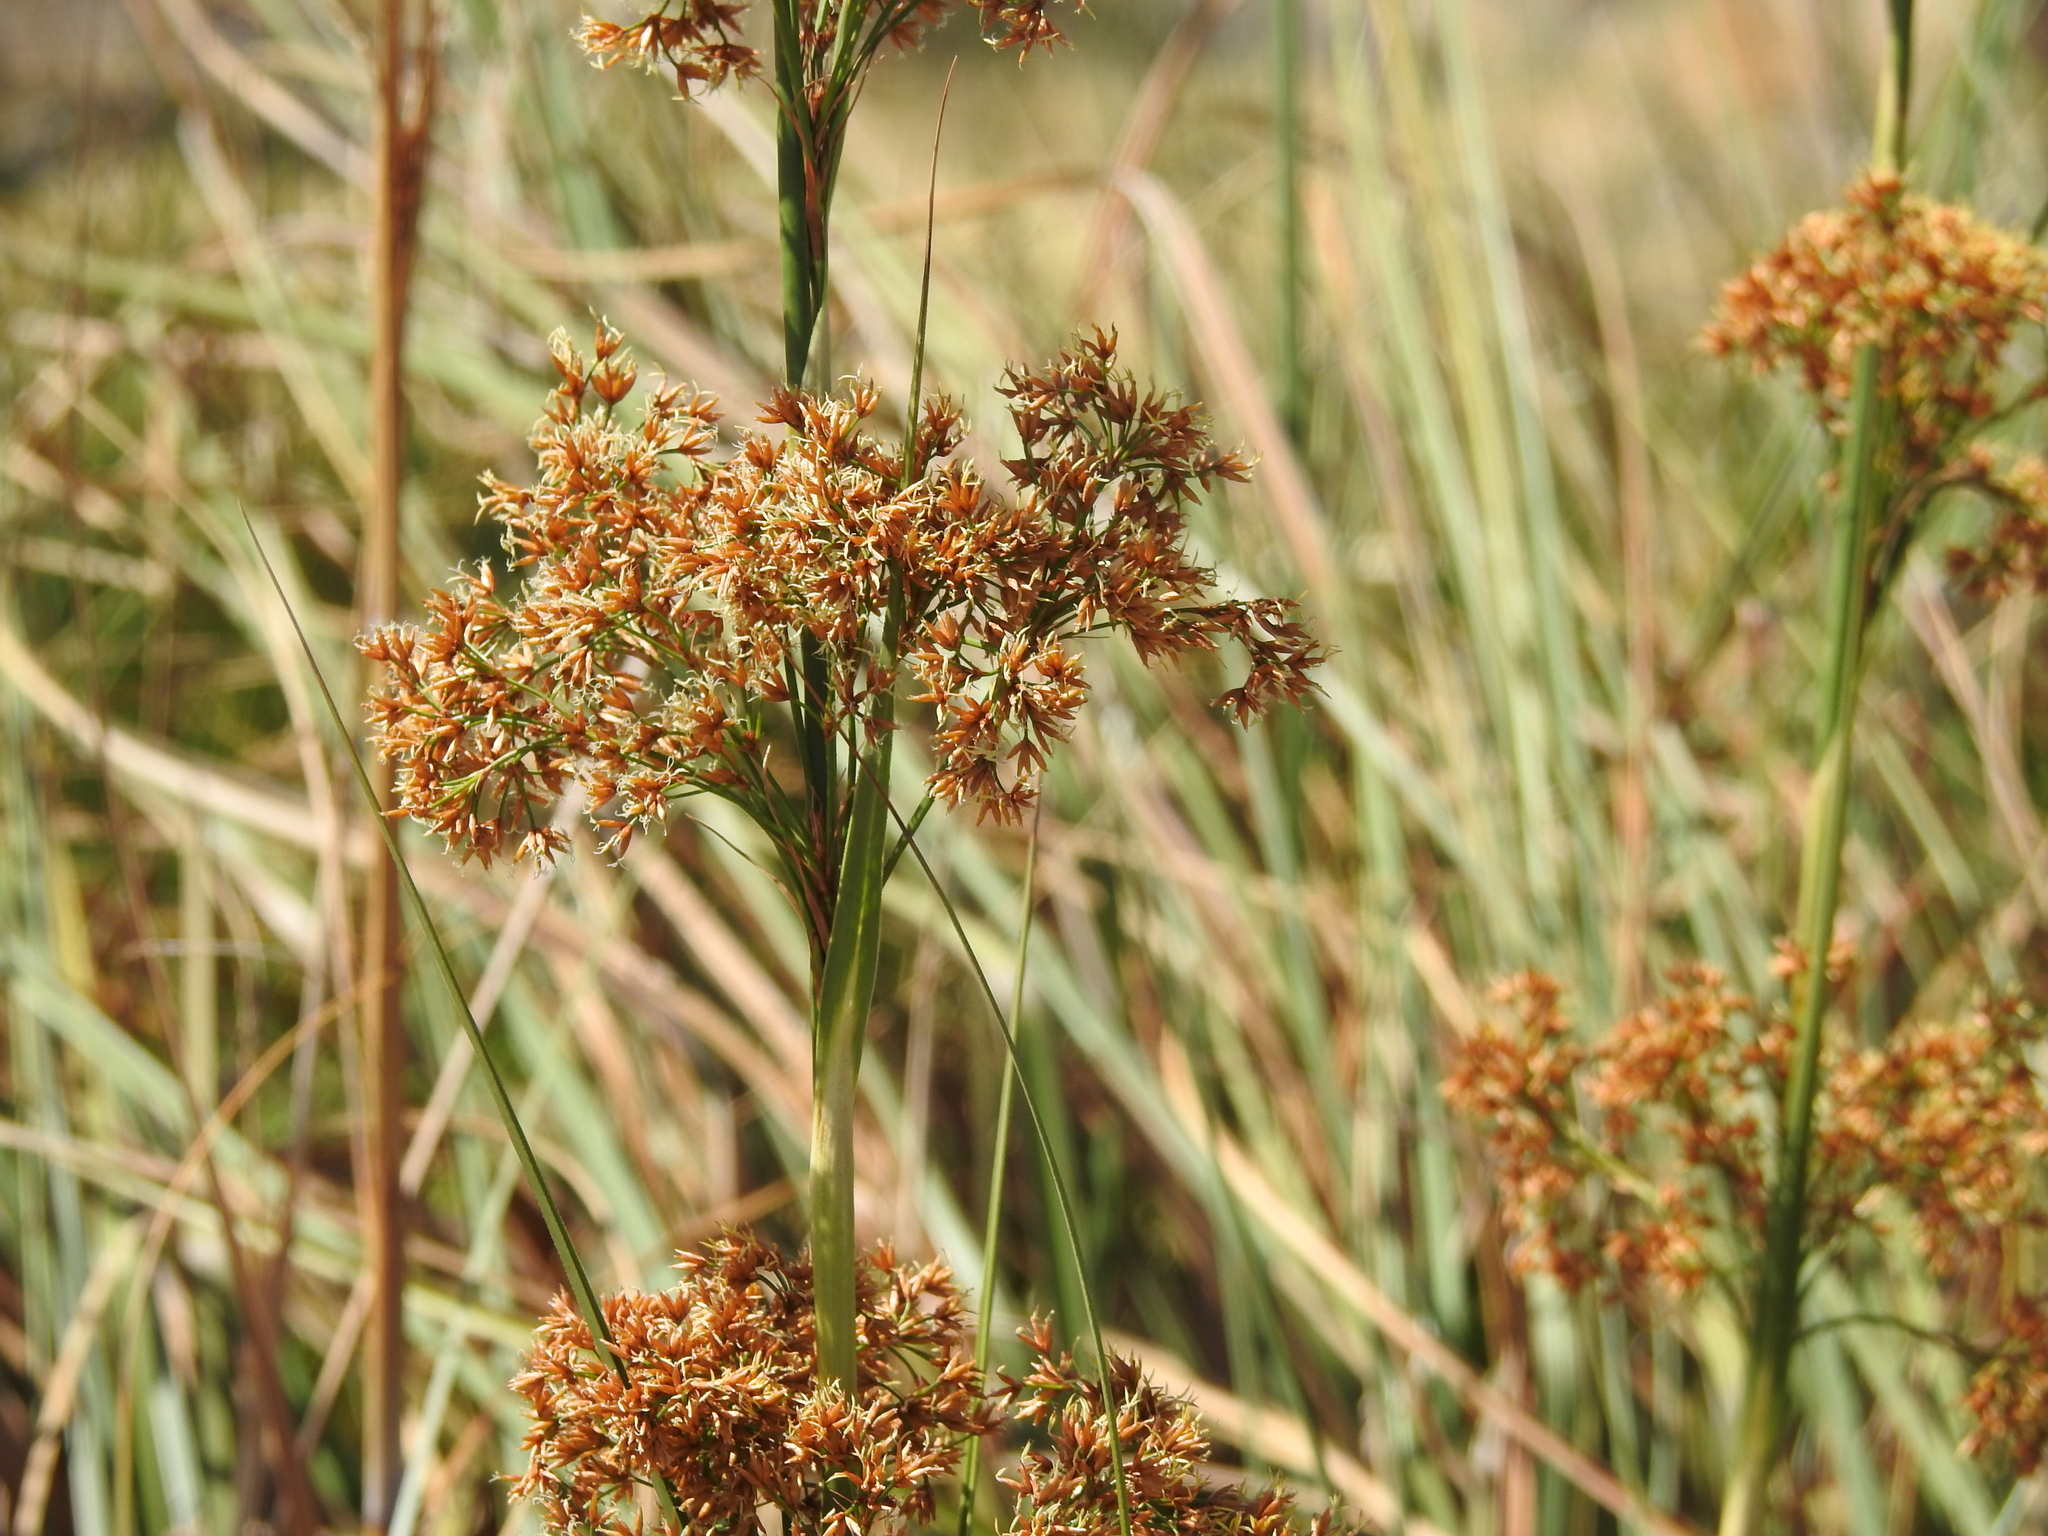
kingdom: Plantae
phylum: Tracheophyta
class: Liliopsida
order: Poales
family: Cyperaceae
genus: Cladium
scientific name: Cladium mariscus
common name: Great fen-sedge
